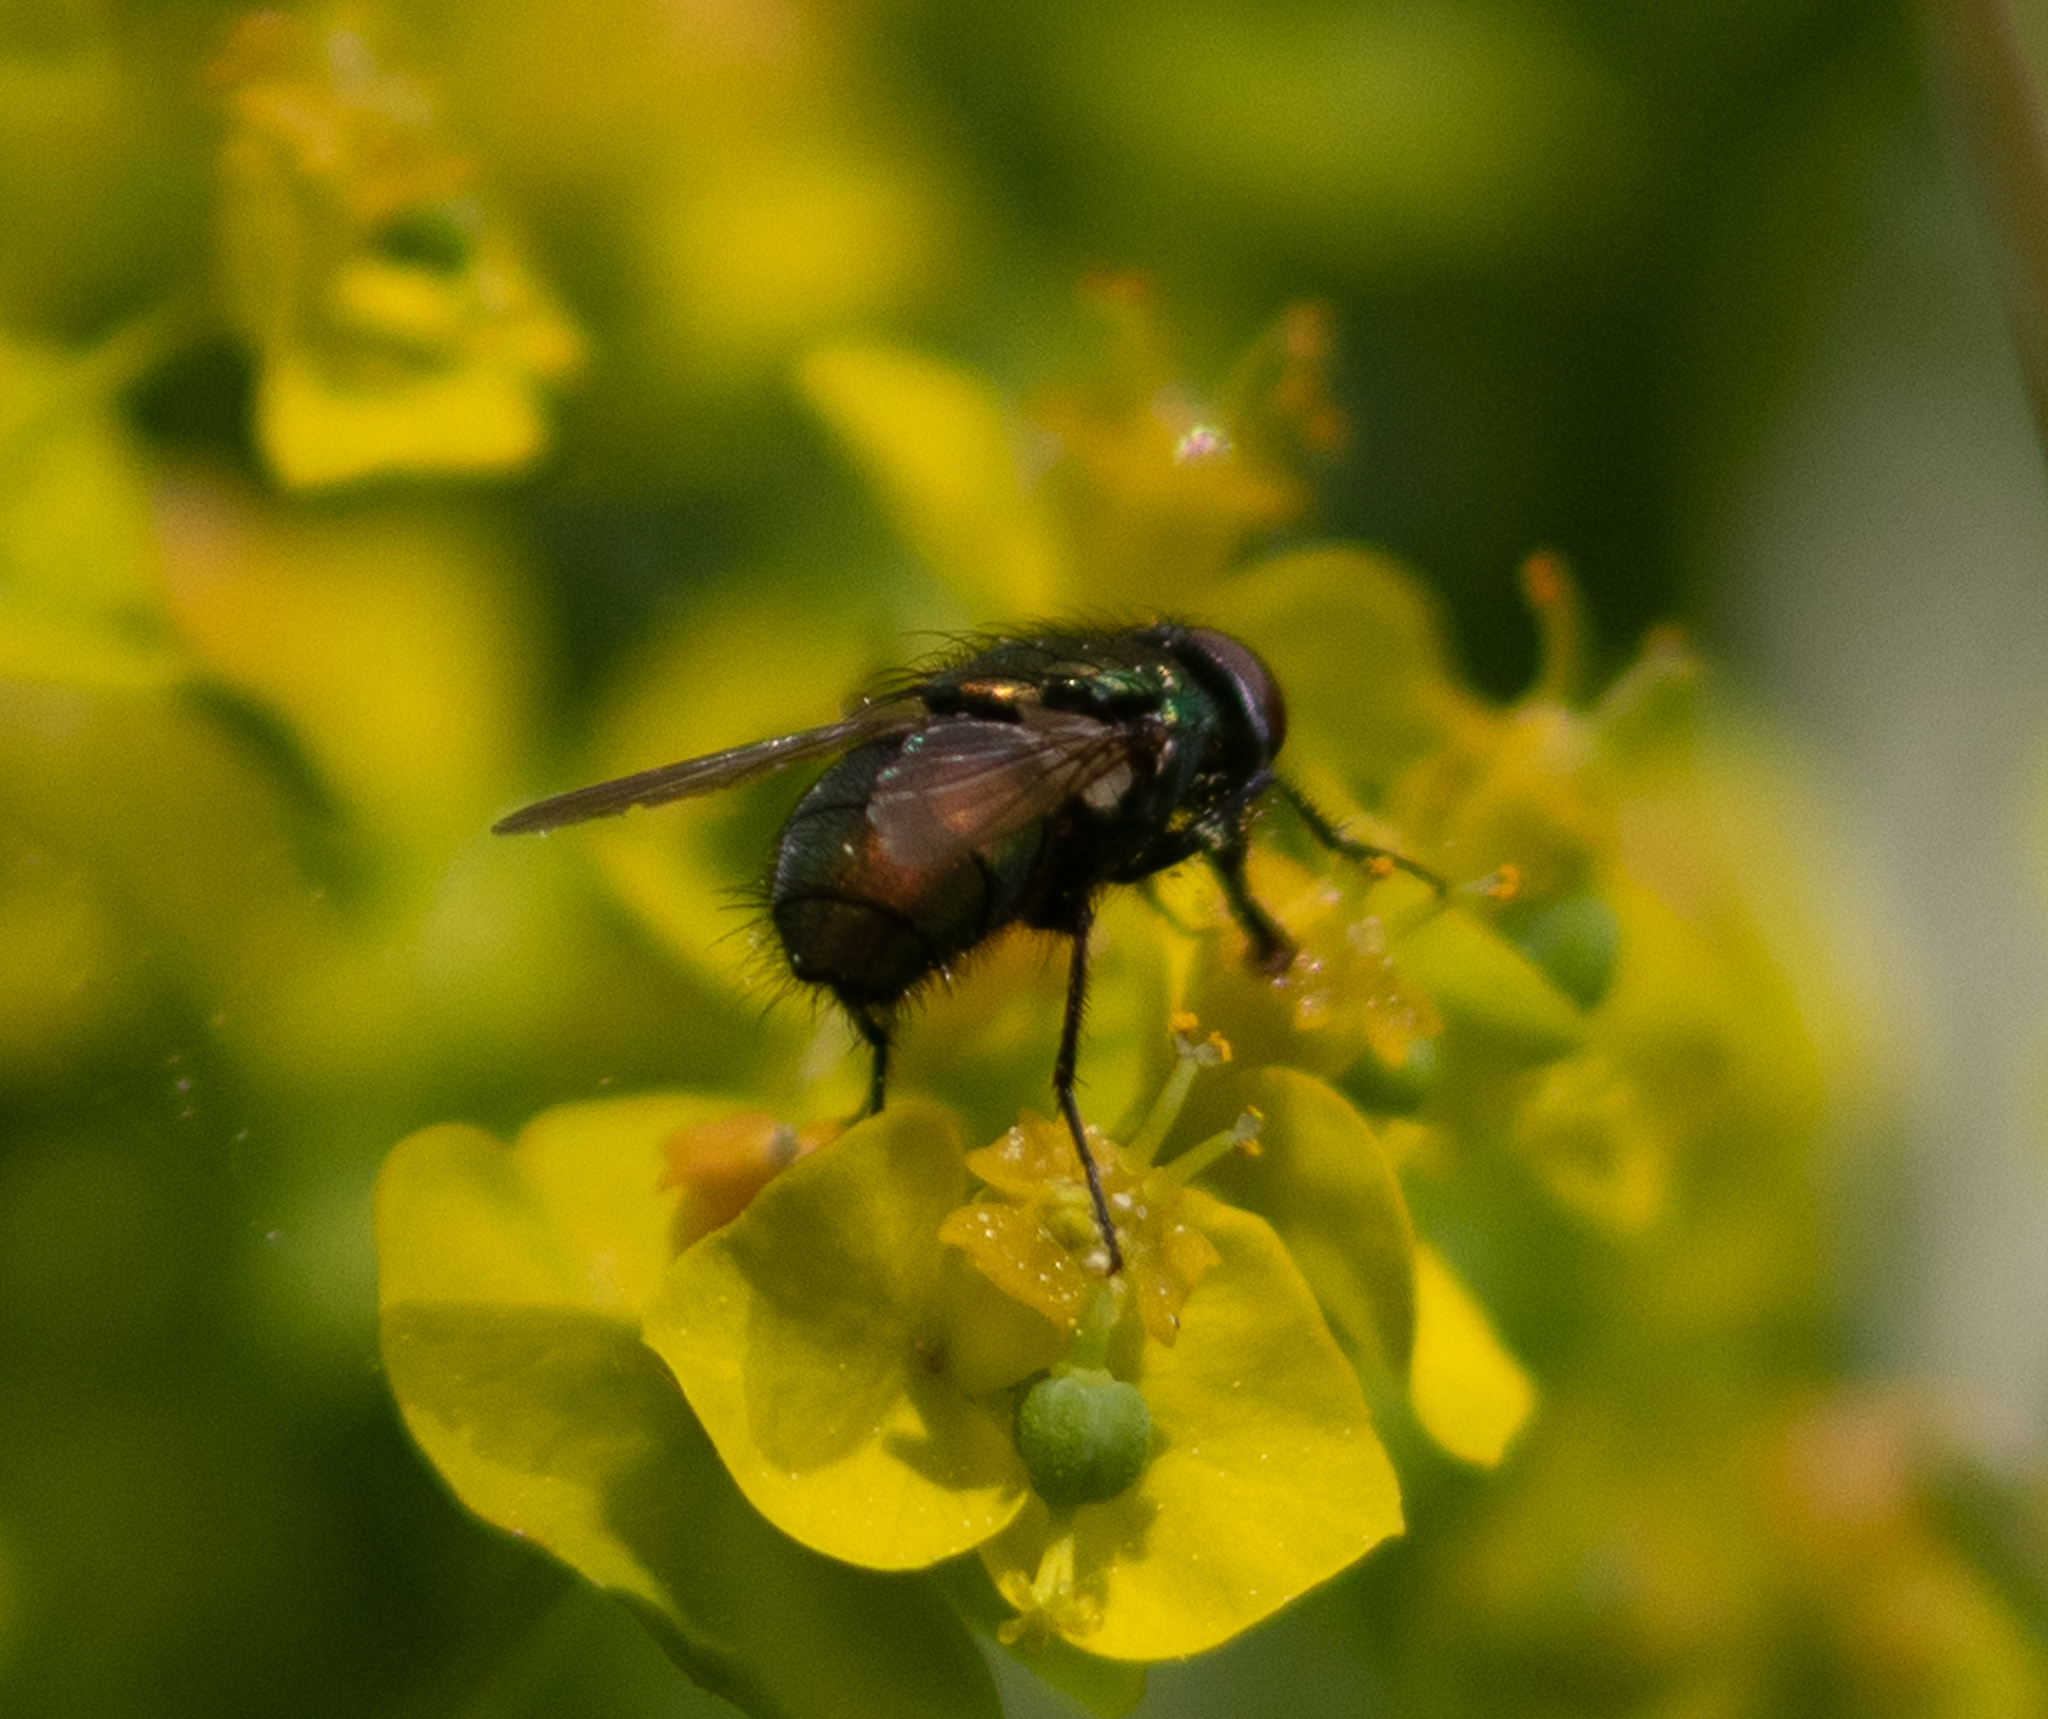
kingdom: Animalia
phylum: Arthropoda
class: Insecta
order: Diptera
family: Calliphoridae
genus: Lucilia
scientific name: Lucilia
